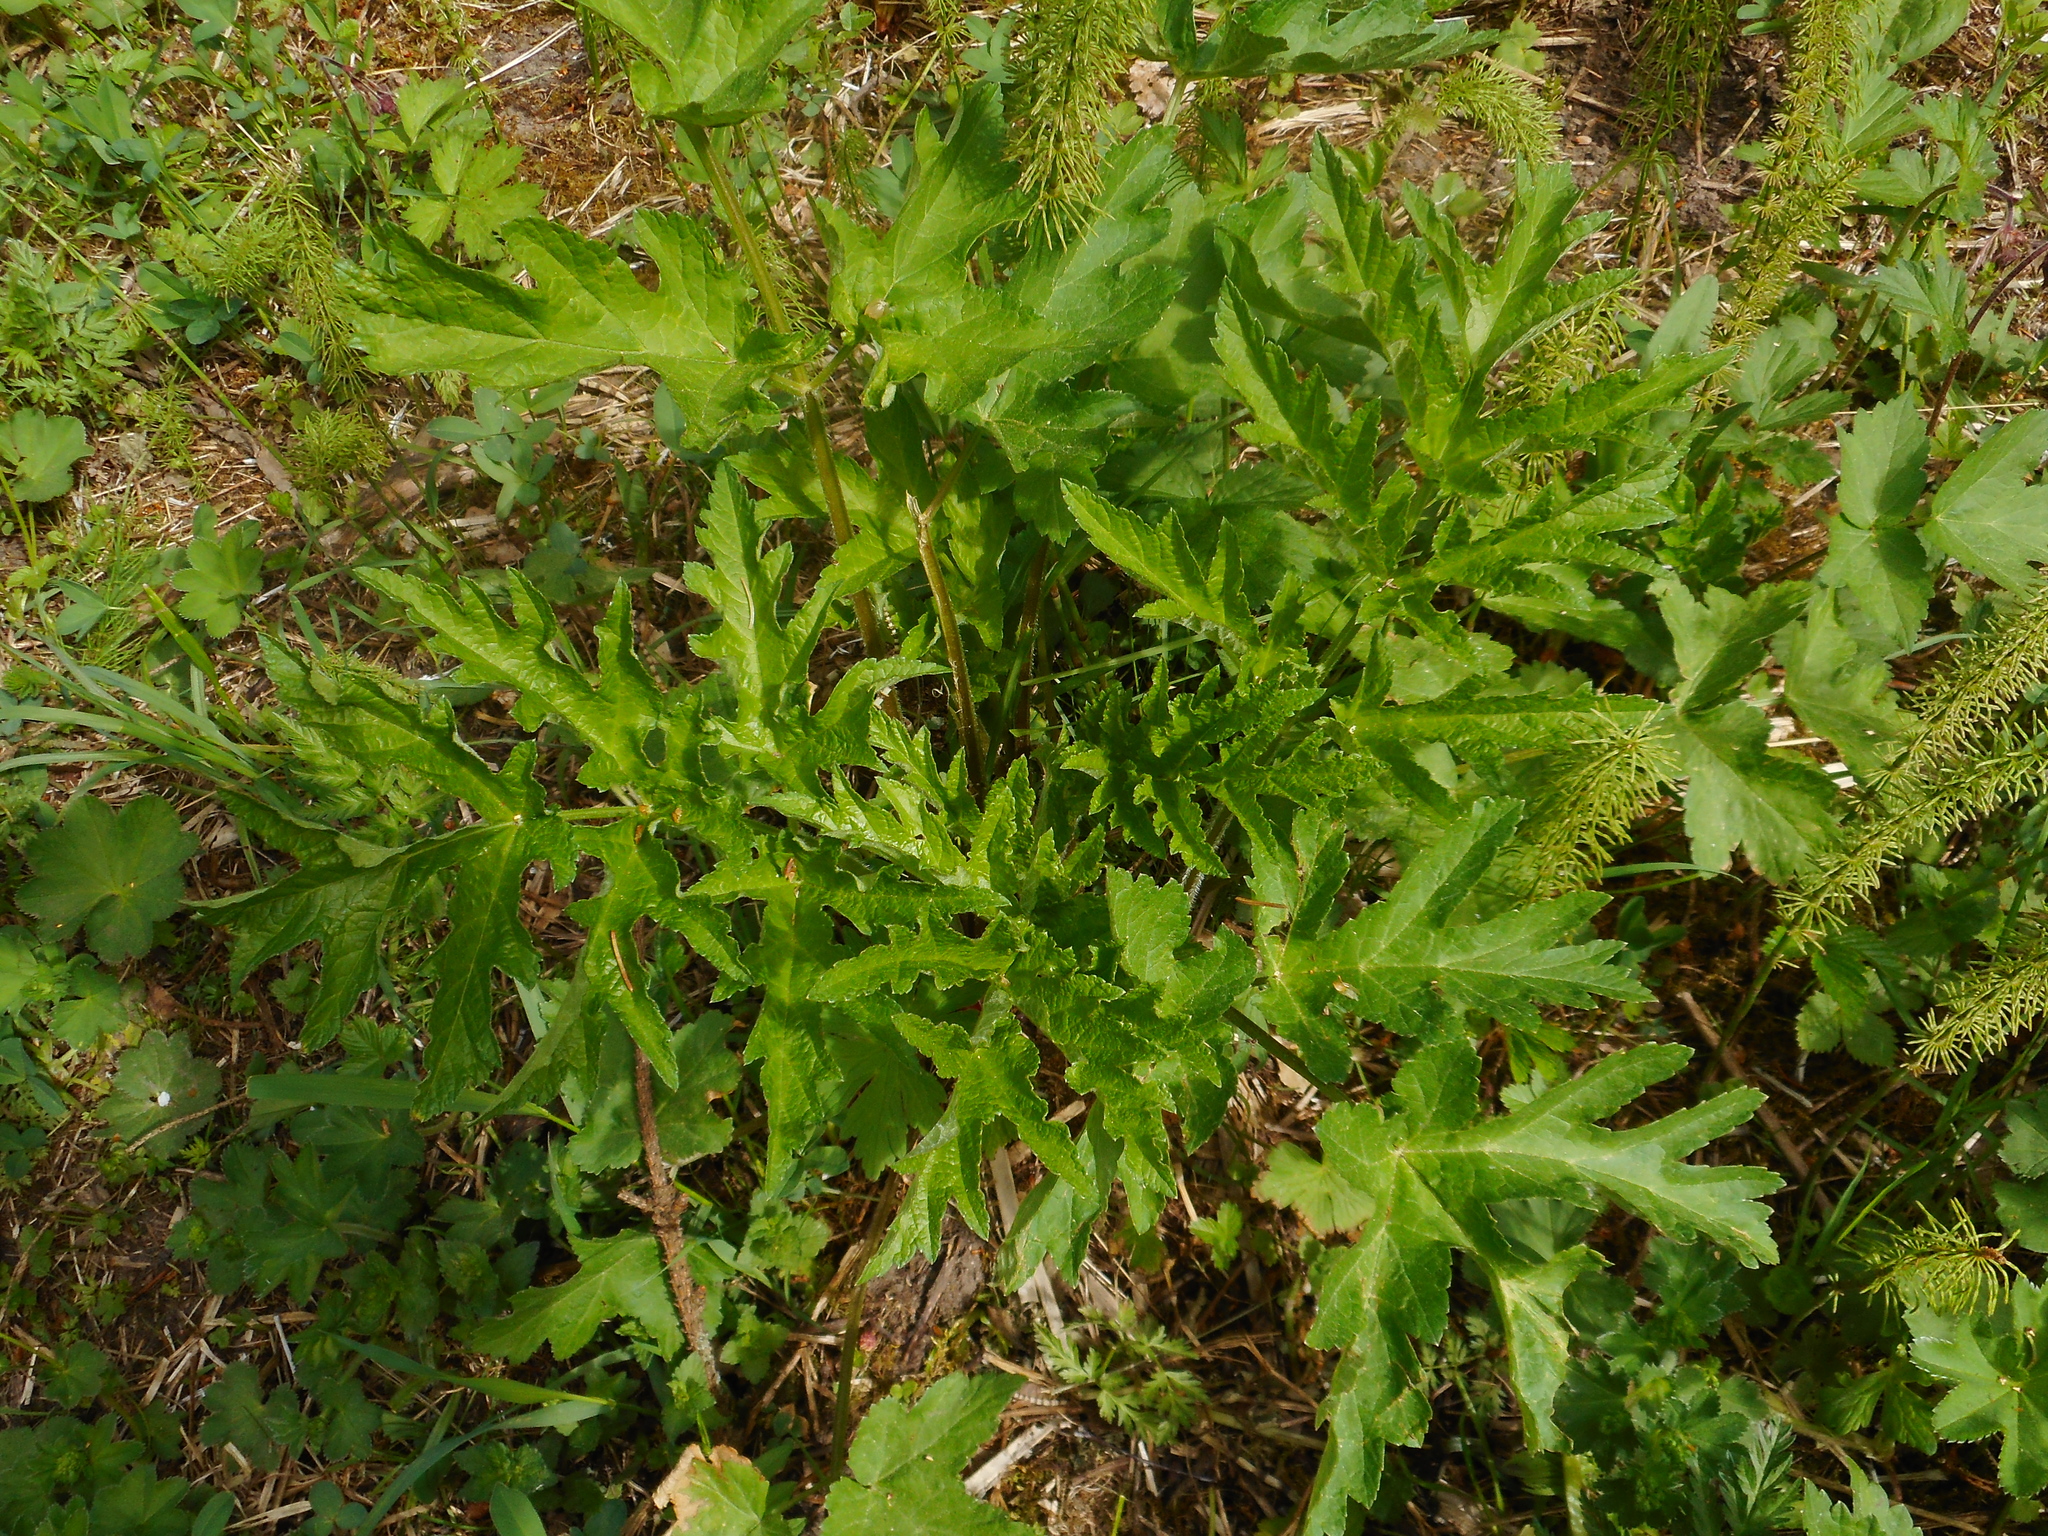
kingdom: Plantae
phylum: Tracheophyta
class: Magnoliopsida
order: Apiales
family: Apiaceae
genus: Heracleum
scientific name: Heracleum sphondylium
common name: Hogweed
